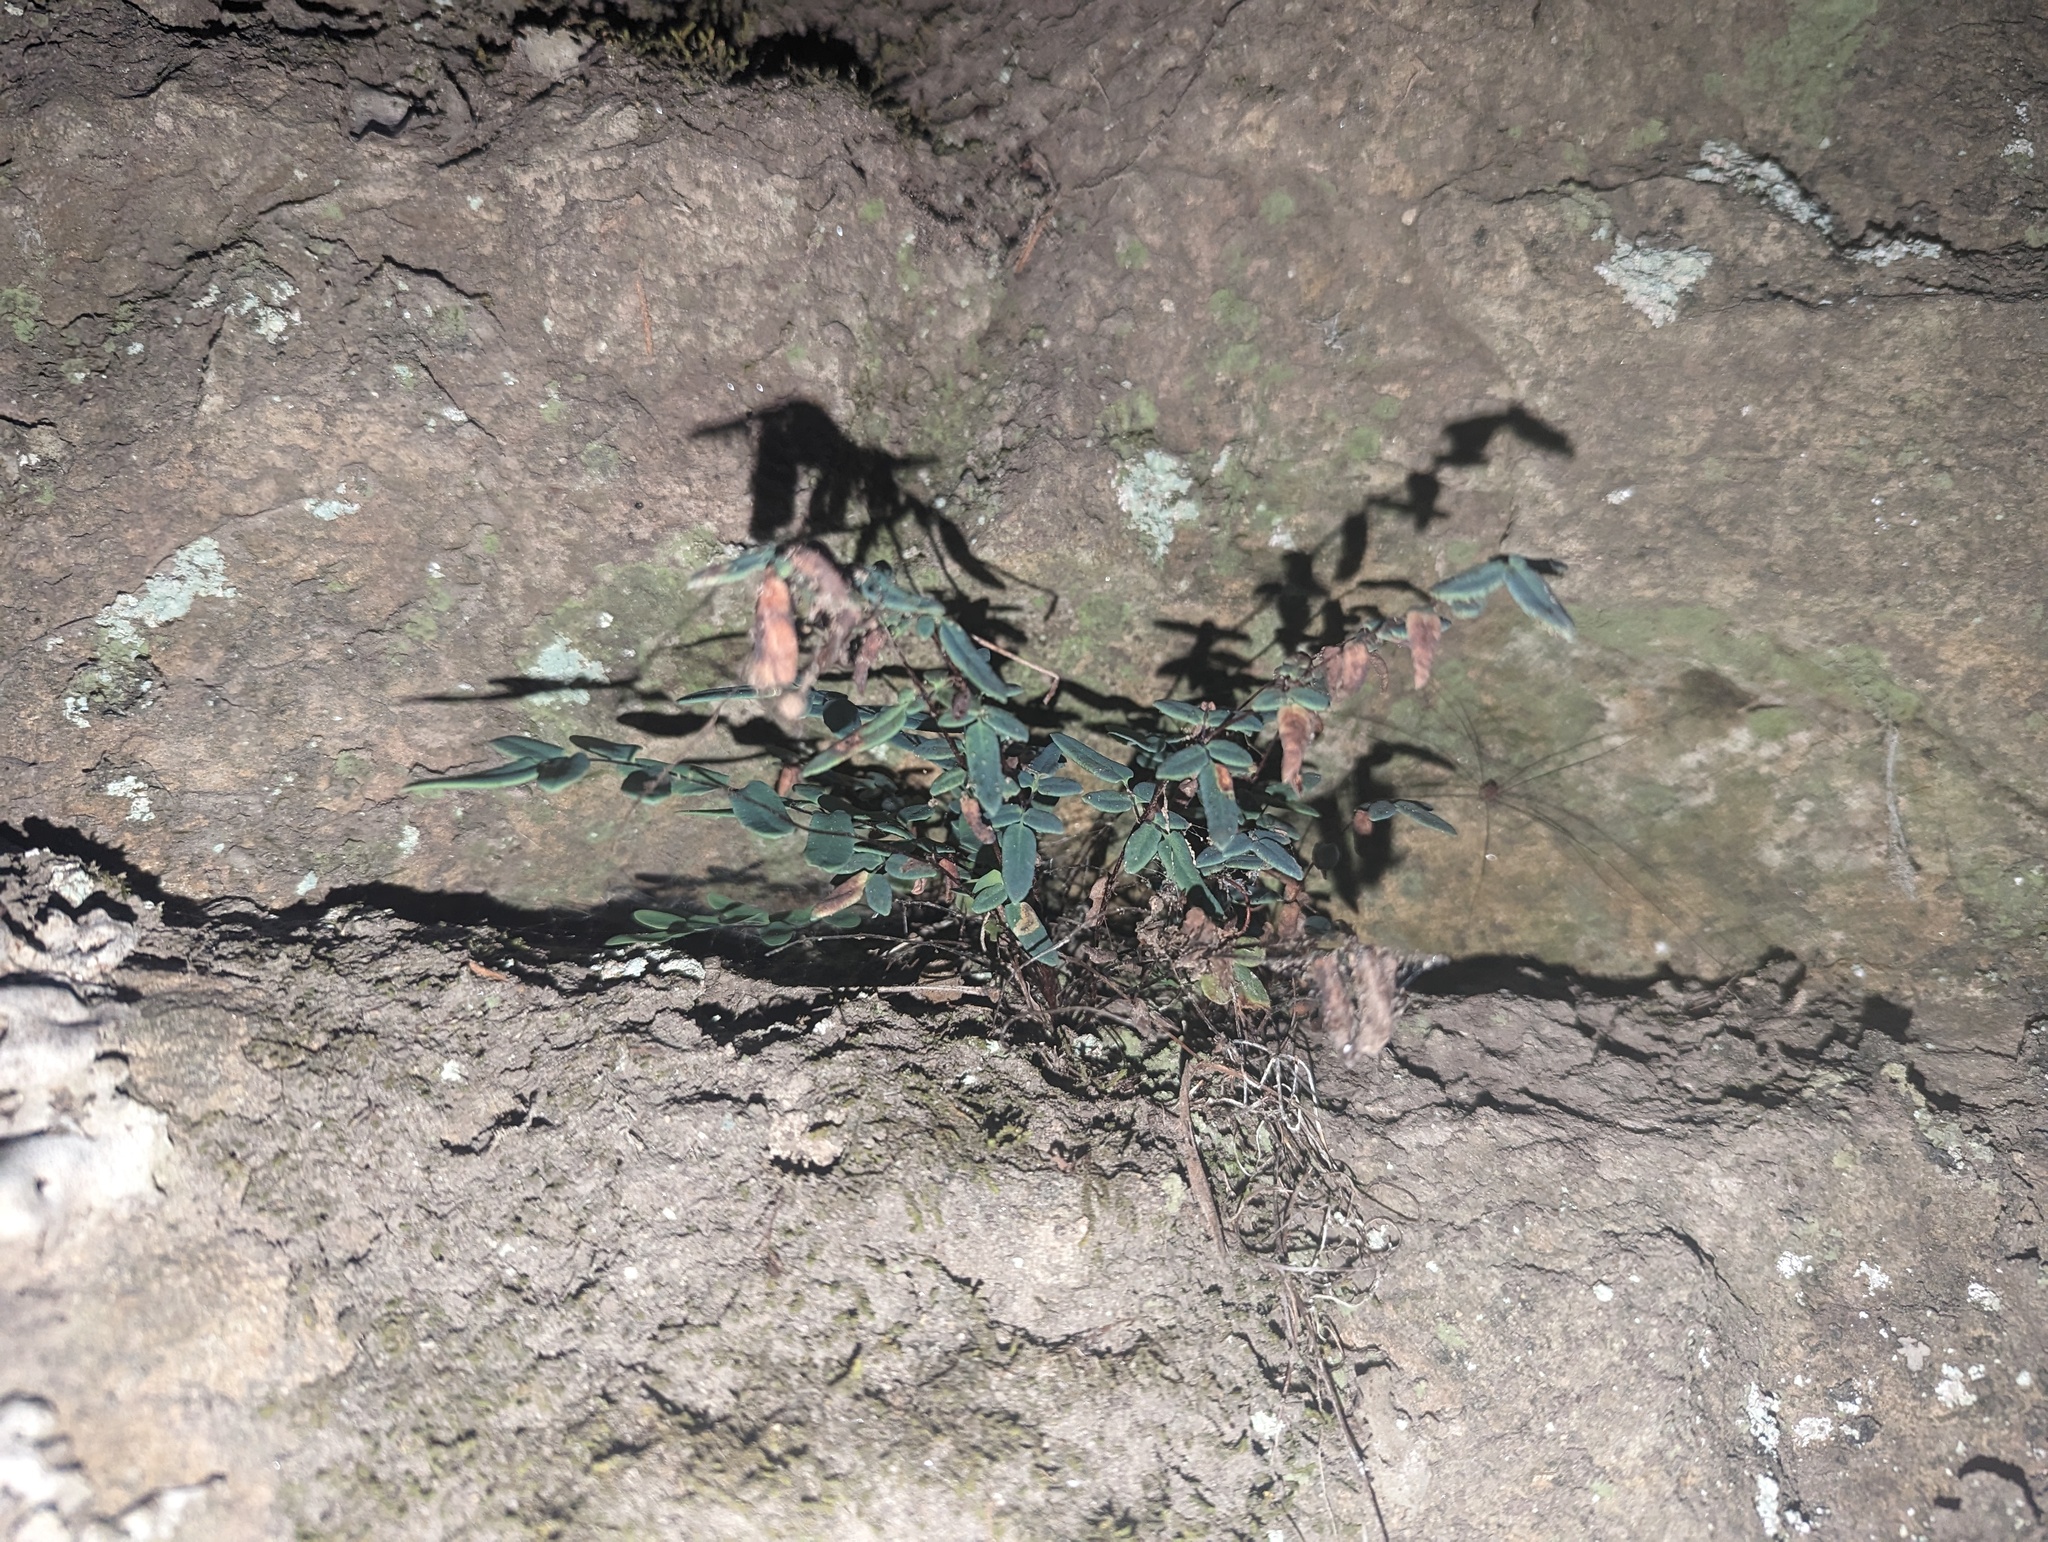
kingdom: Plantae
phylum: Tracheophyta
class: Polypodiopsida
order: Polypodiales
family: Pteridaceae
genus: Pellaea
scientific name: Pellaea glabella
